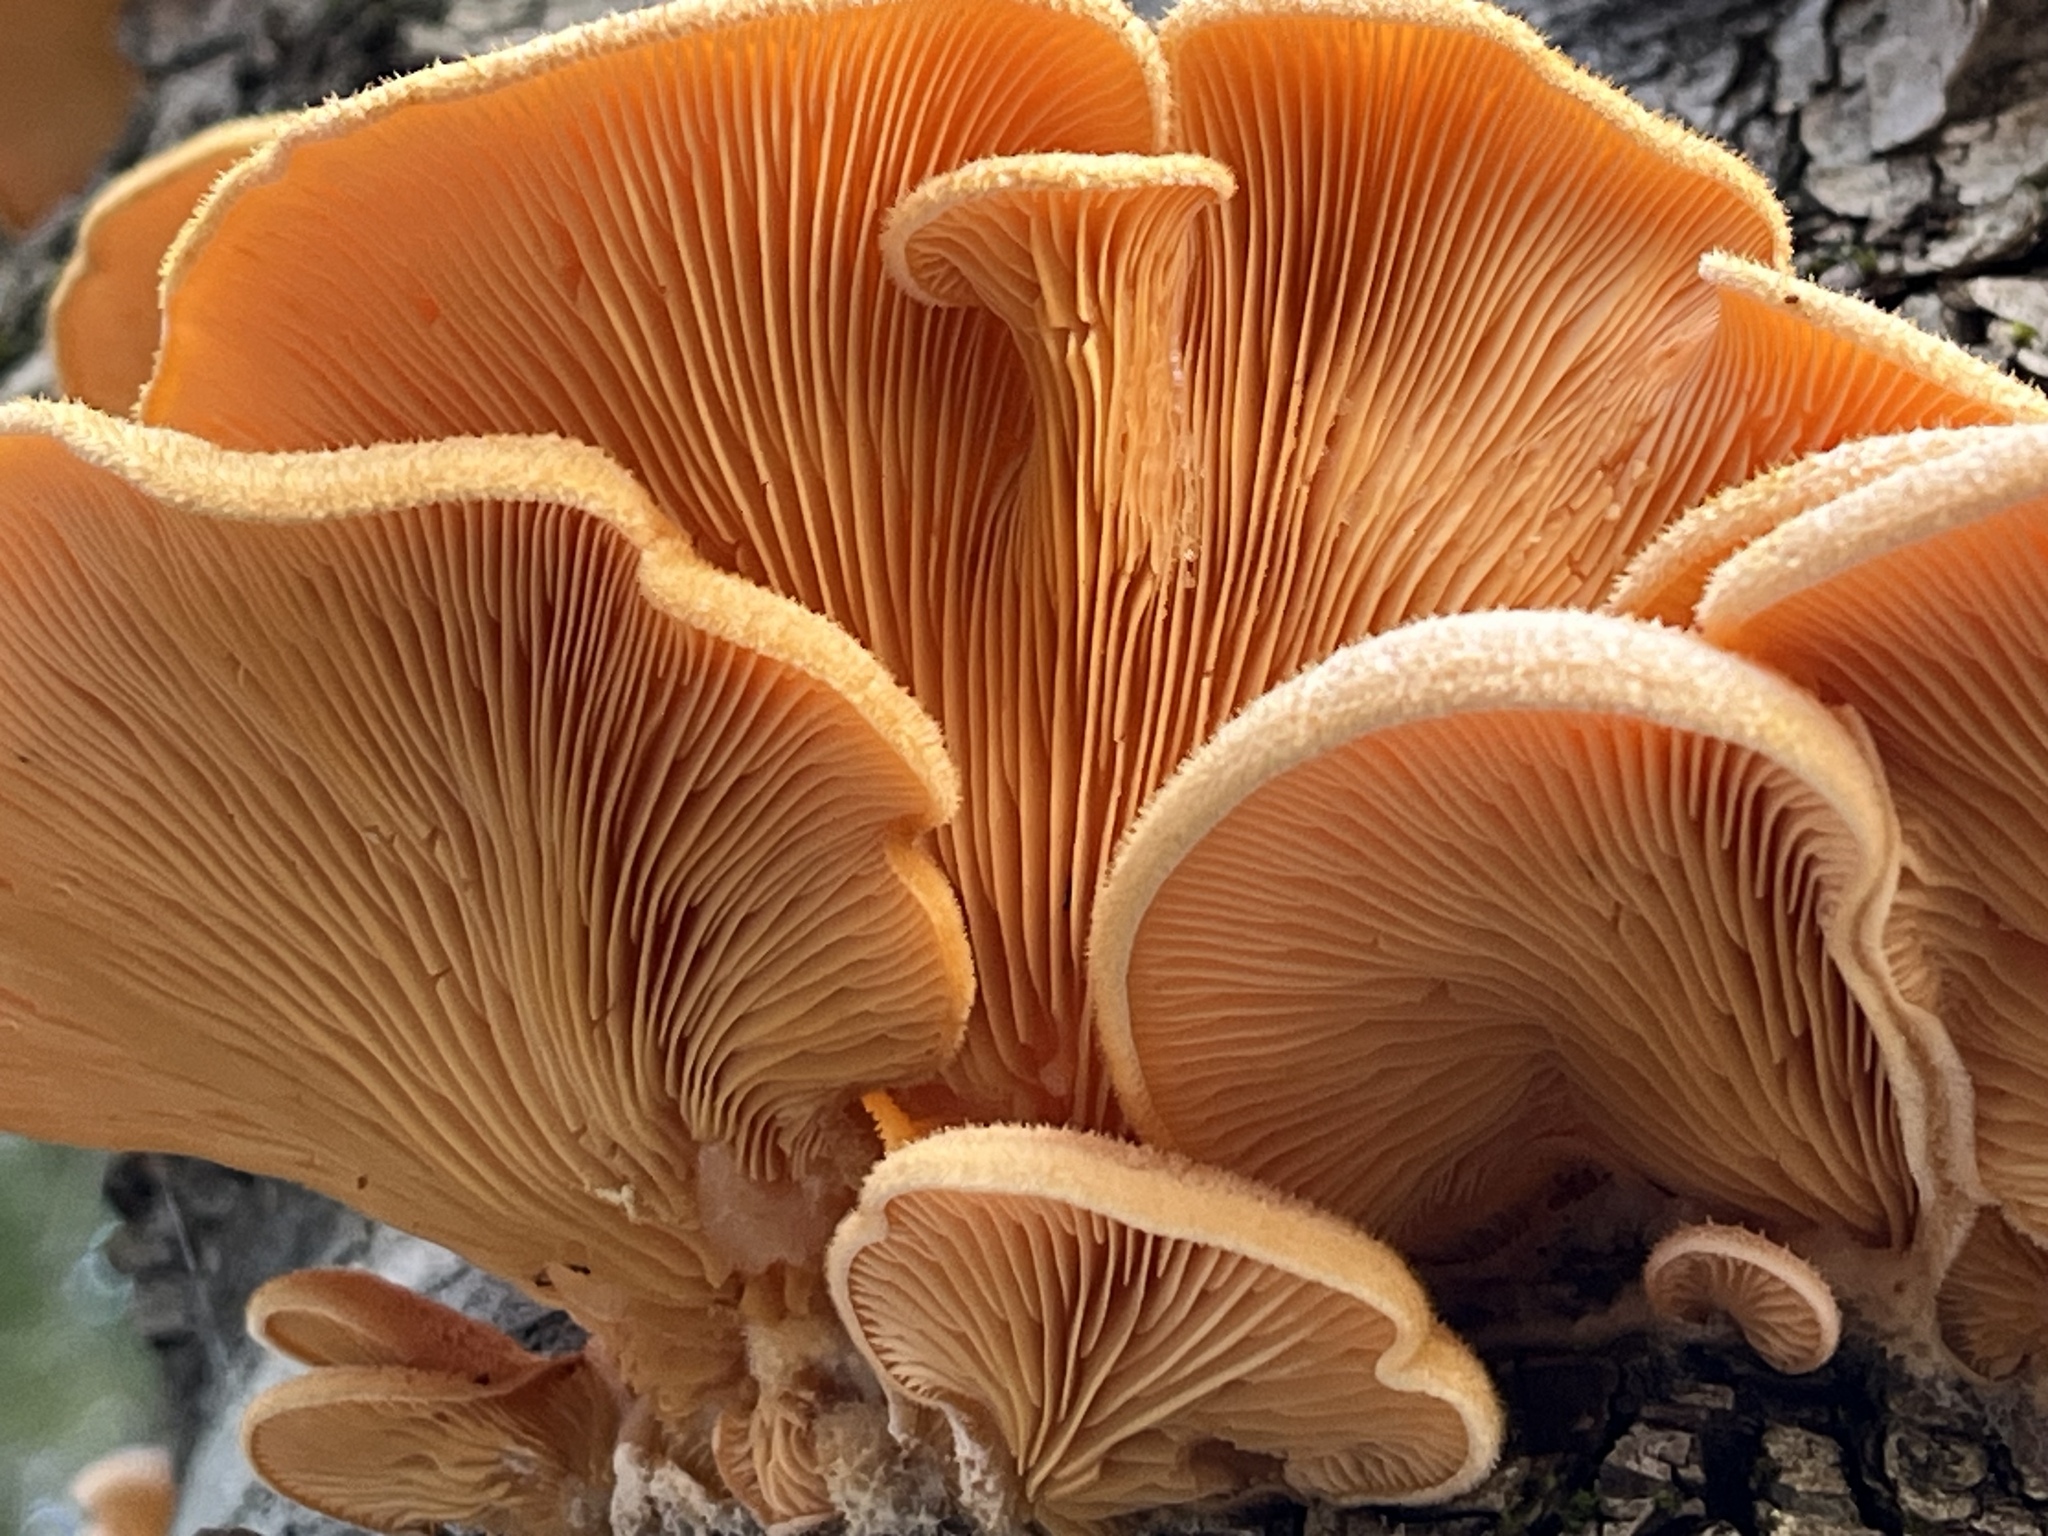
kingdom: Fungi
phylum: Basidiomycota
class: Agaricomycetes
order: Agaricales
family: Phyllotopsidaceae
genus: Phyllotopsis
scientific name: Phyllotopsis nidulans
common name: Orange mock oyster
